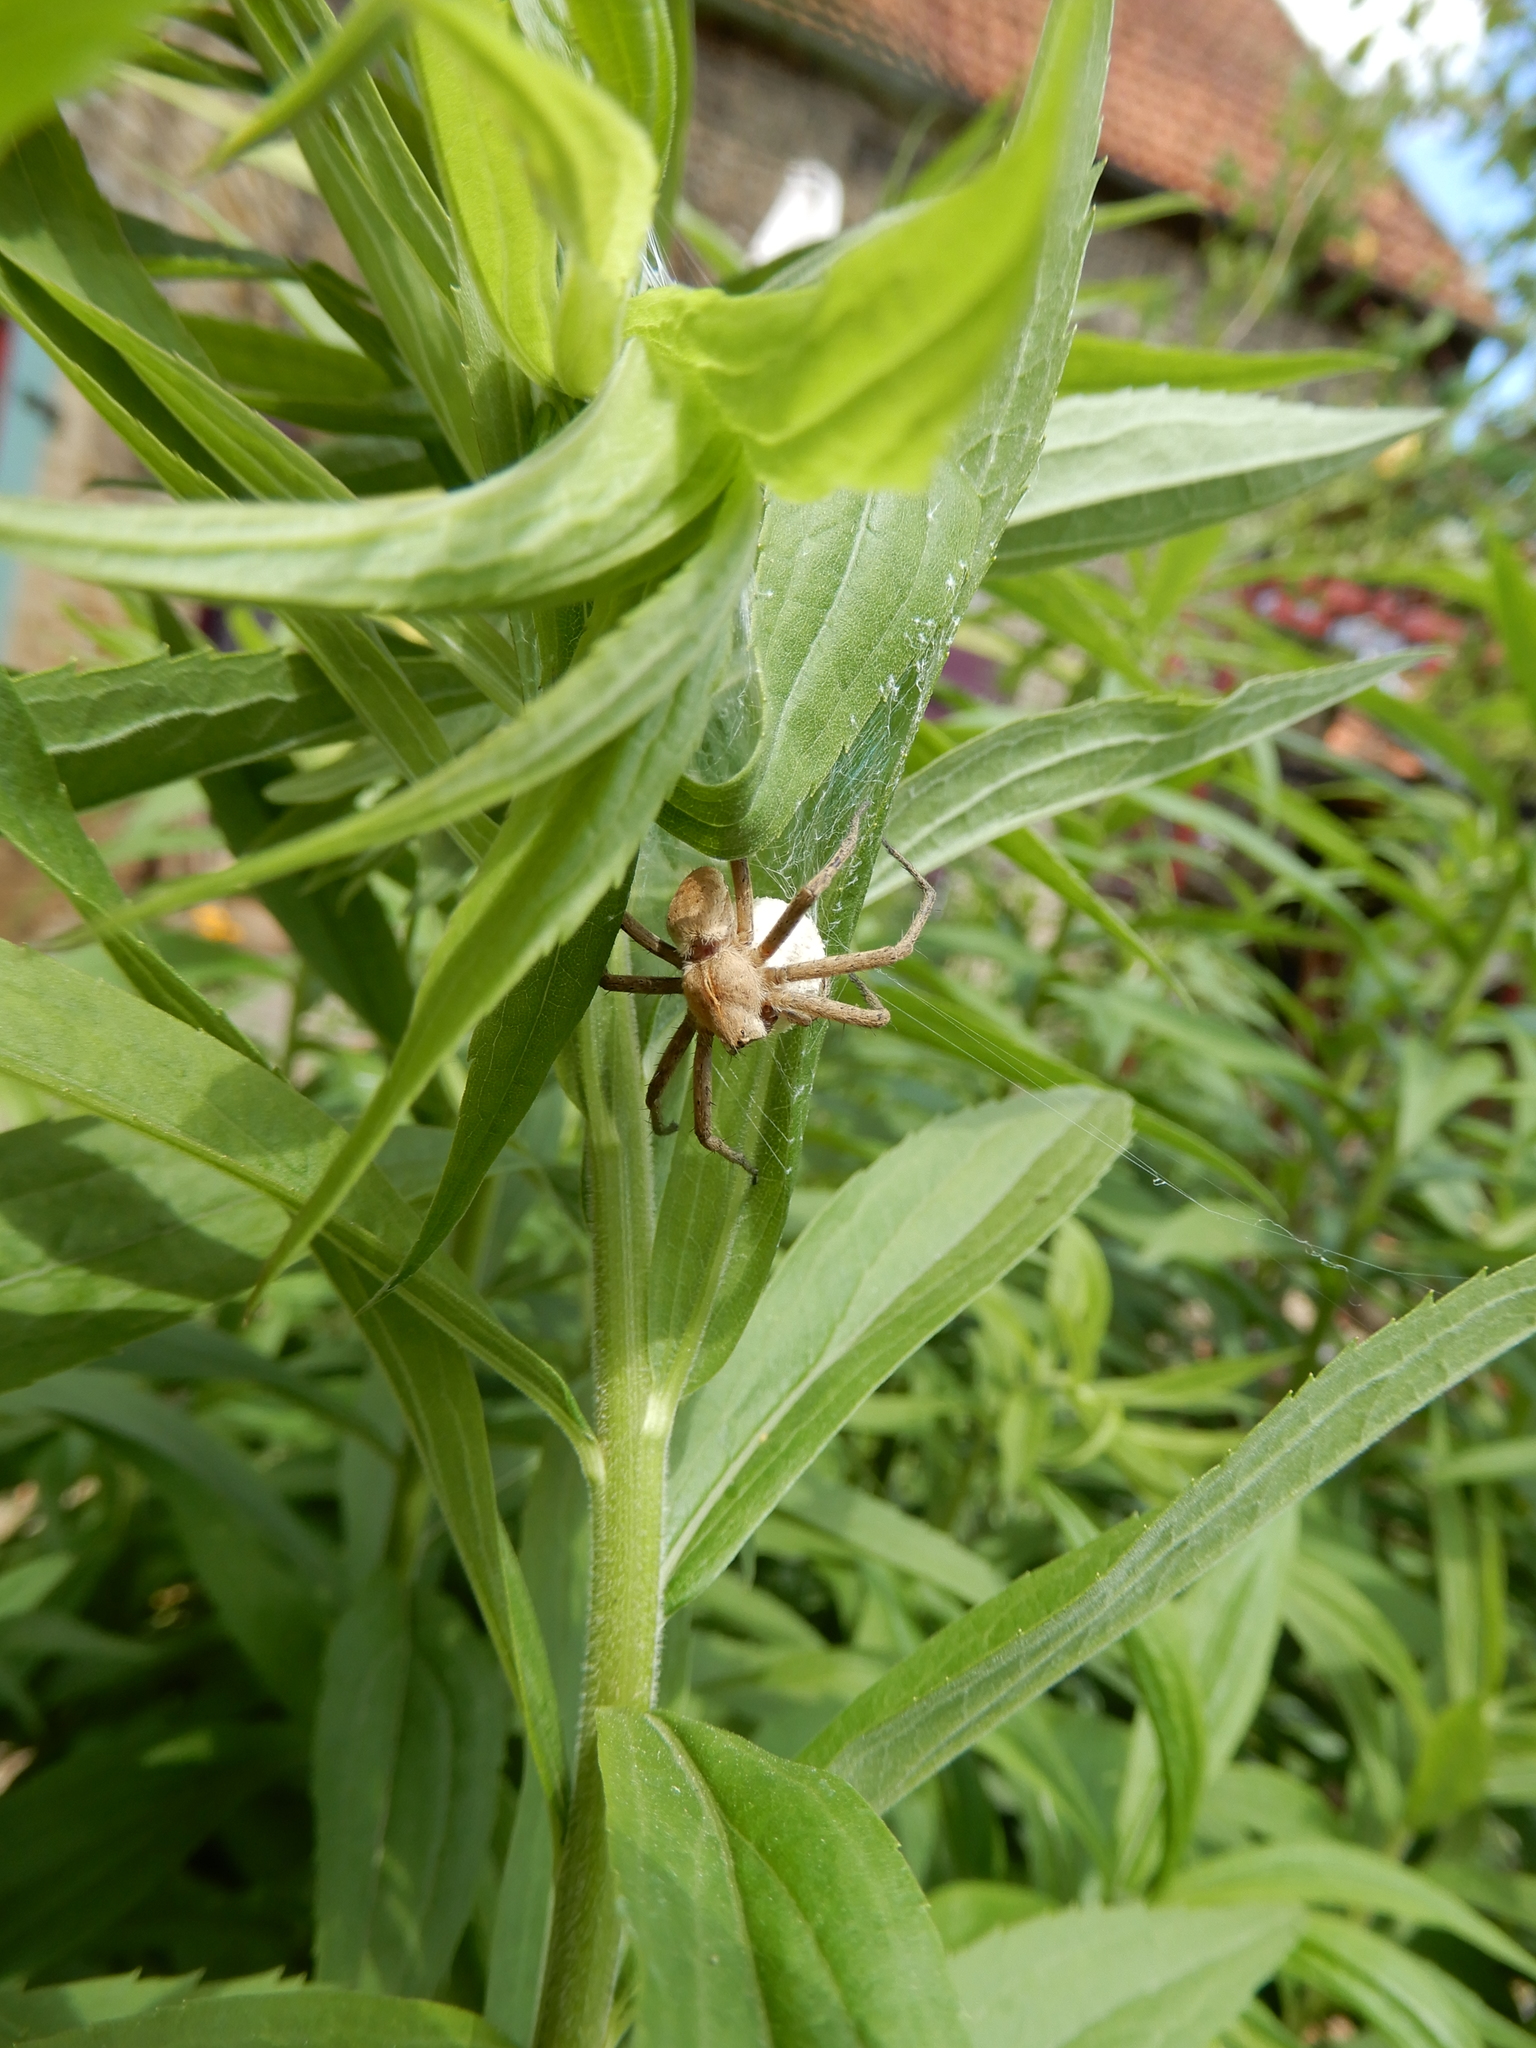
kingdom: Animalia
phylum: Arthropoda
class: Arachnida
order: Araneae
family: Pisauridae
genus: Pisaura
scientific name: Pisaura mirabilis
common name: Tent spider
